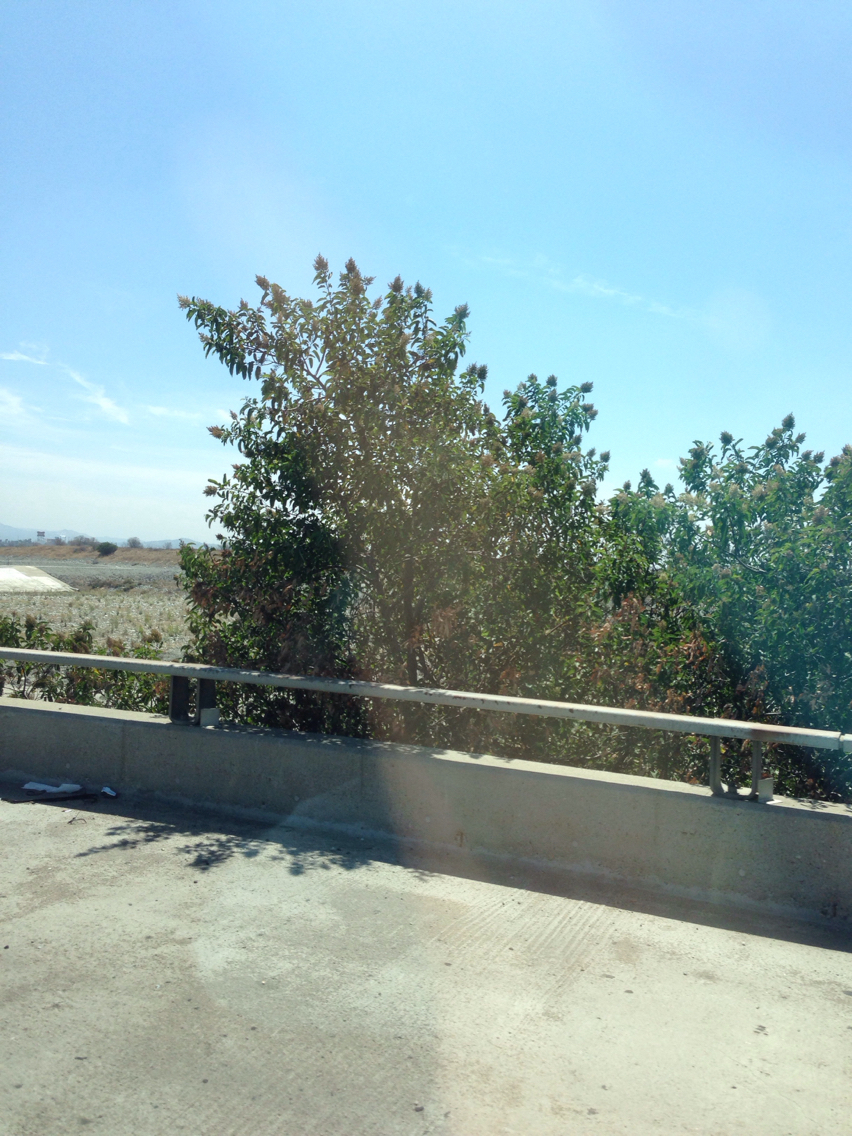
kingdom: Plantae
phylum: Tracheophyta
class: Magnoliopsida
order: Sapindales
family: Anacardiaceae
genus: Malosma
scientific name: Malosma laurina
